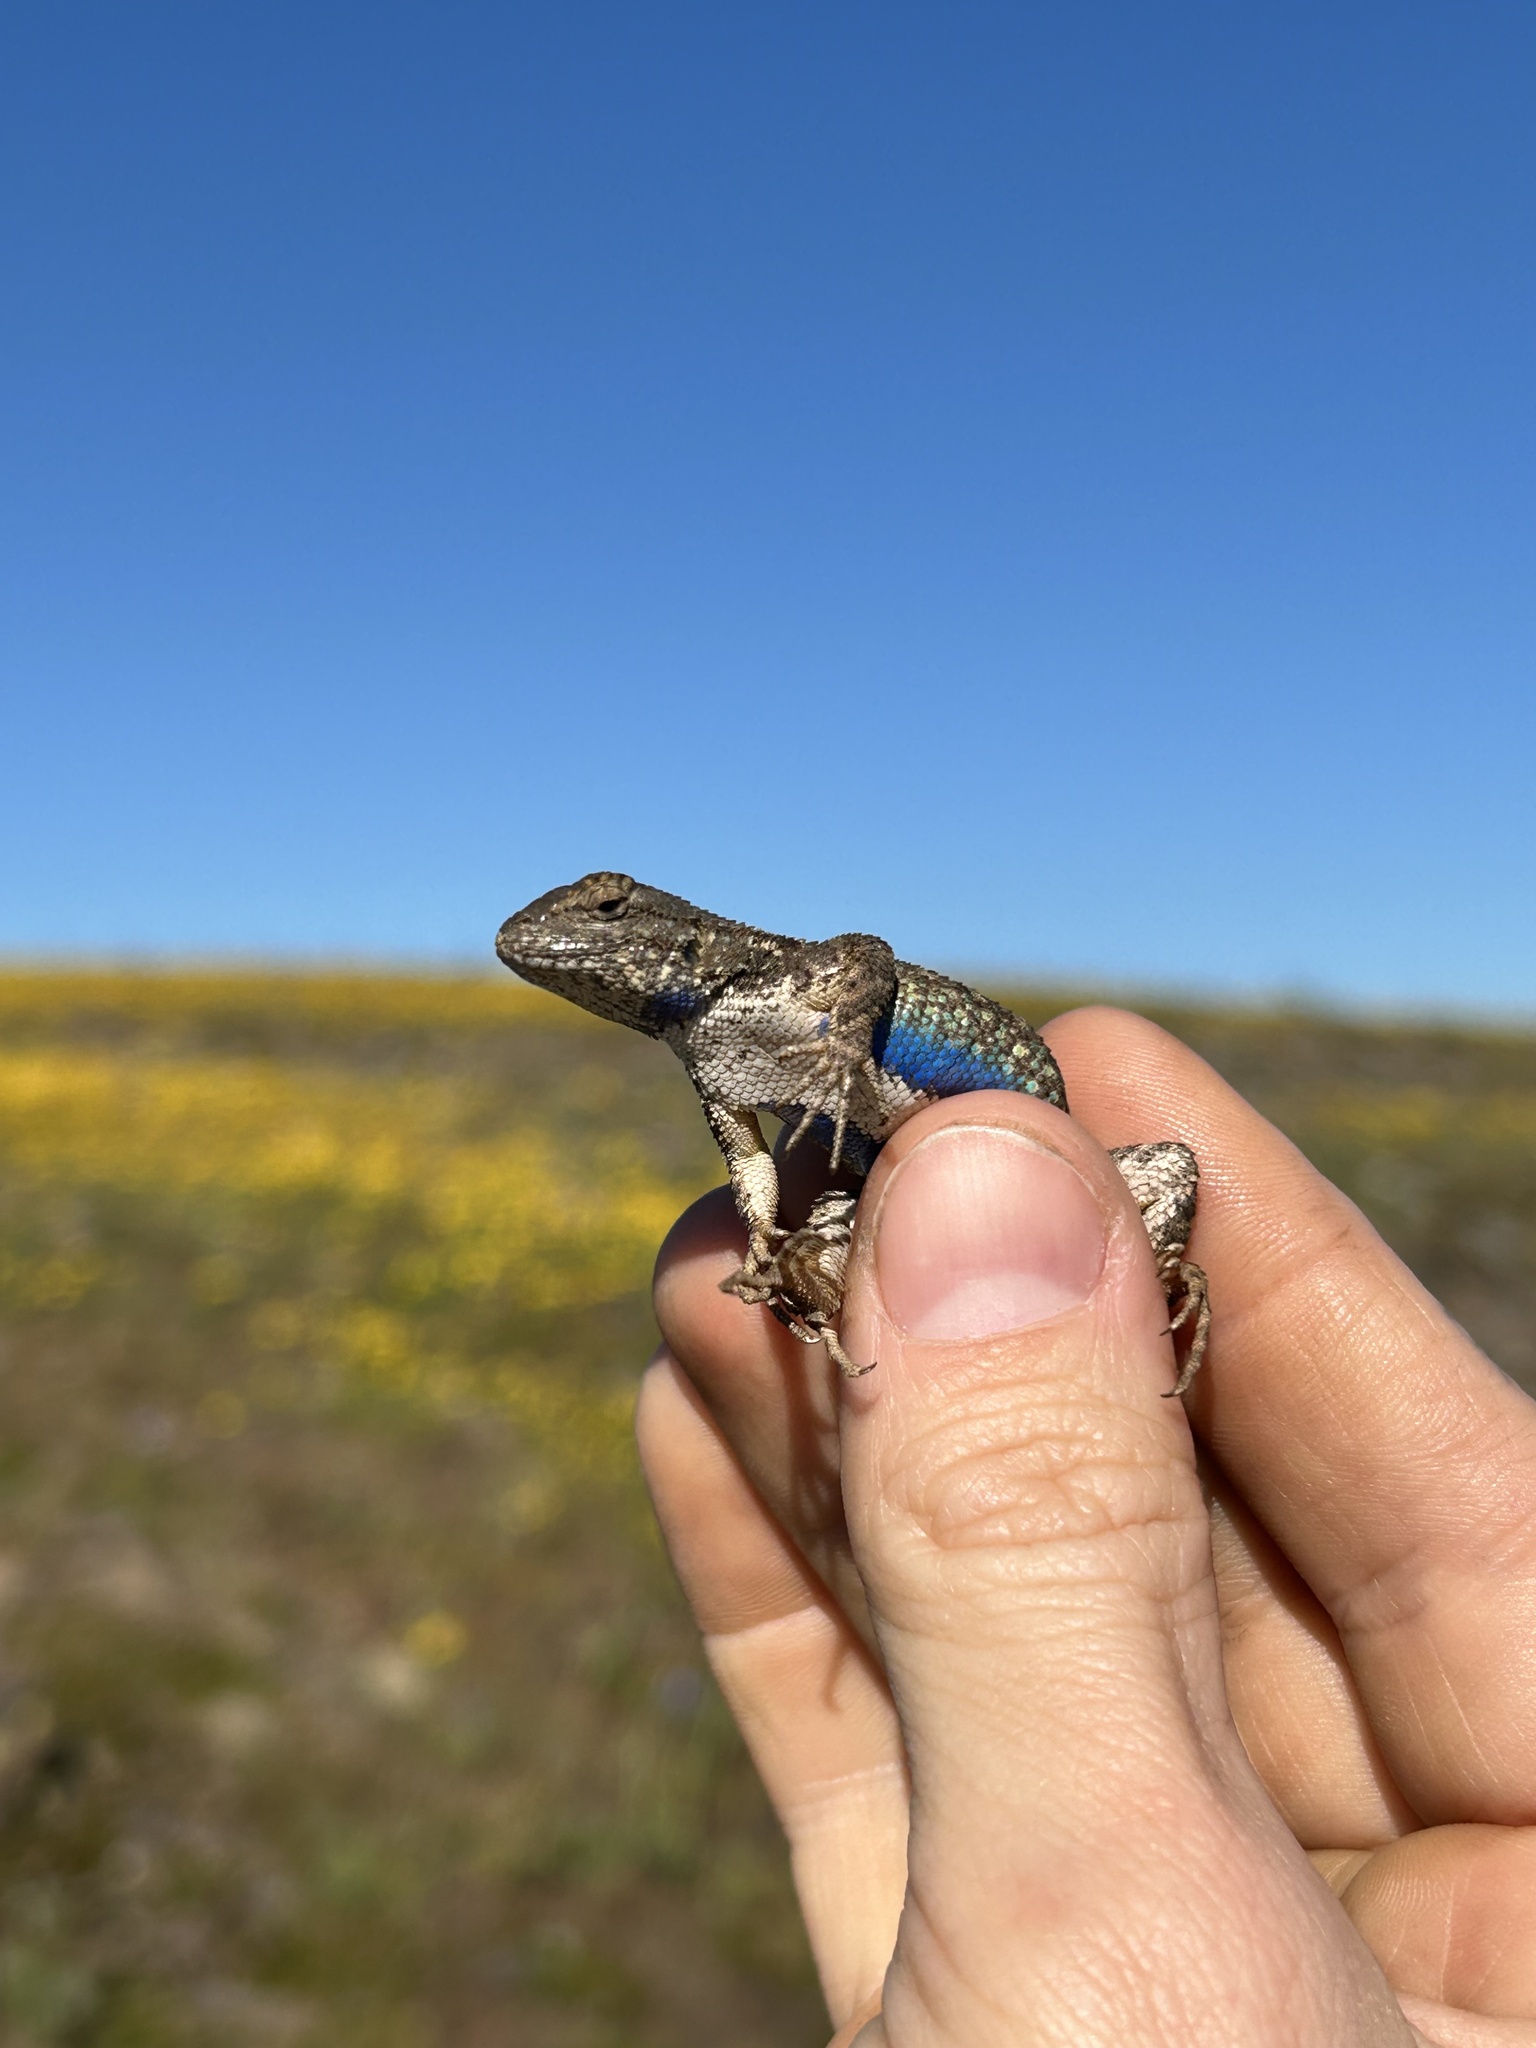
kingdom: Animalia
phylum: Chordata
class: Squamata
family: Phrynosomatidae
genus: Sceloporus
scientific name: Sceloporus occidentalis
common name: Western fence lizard
